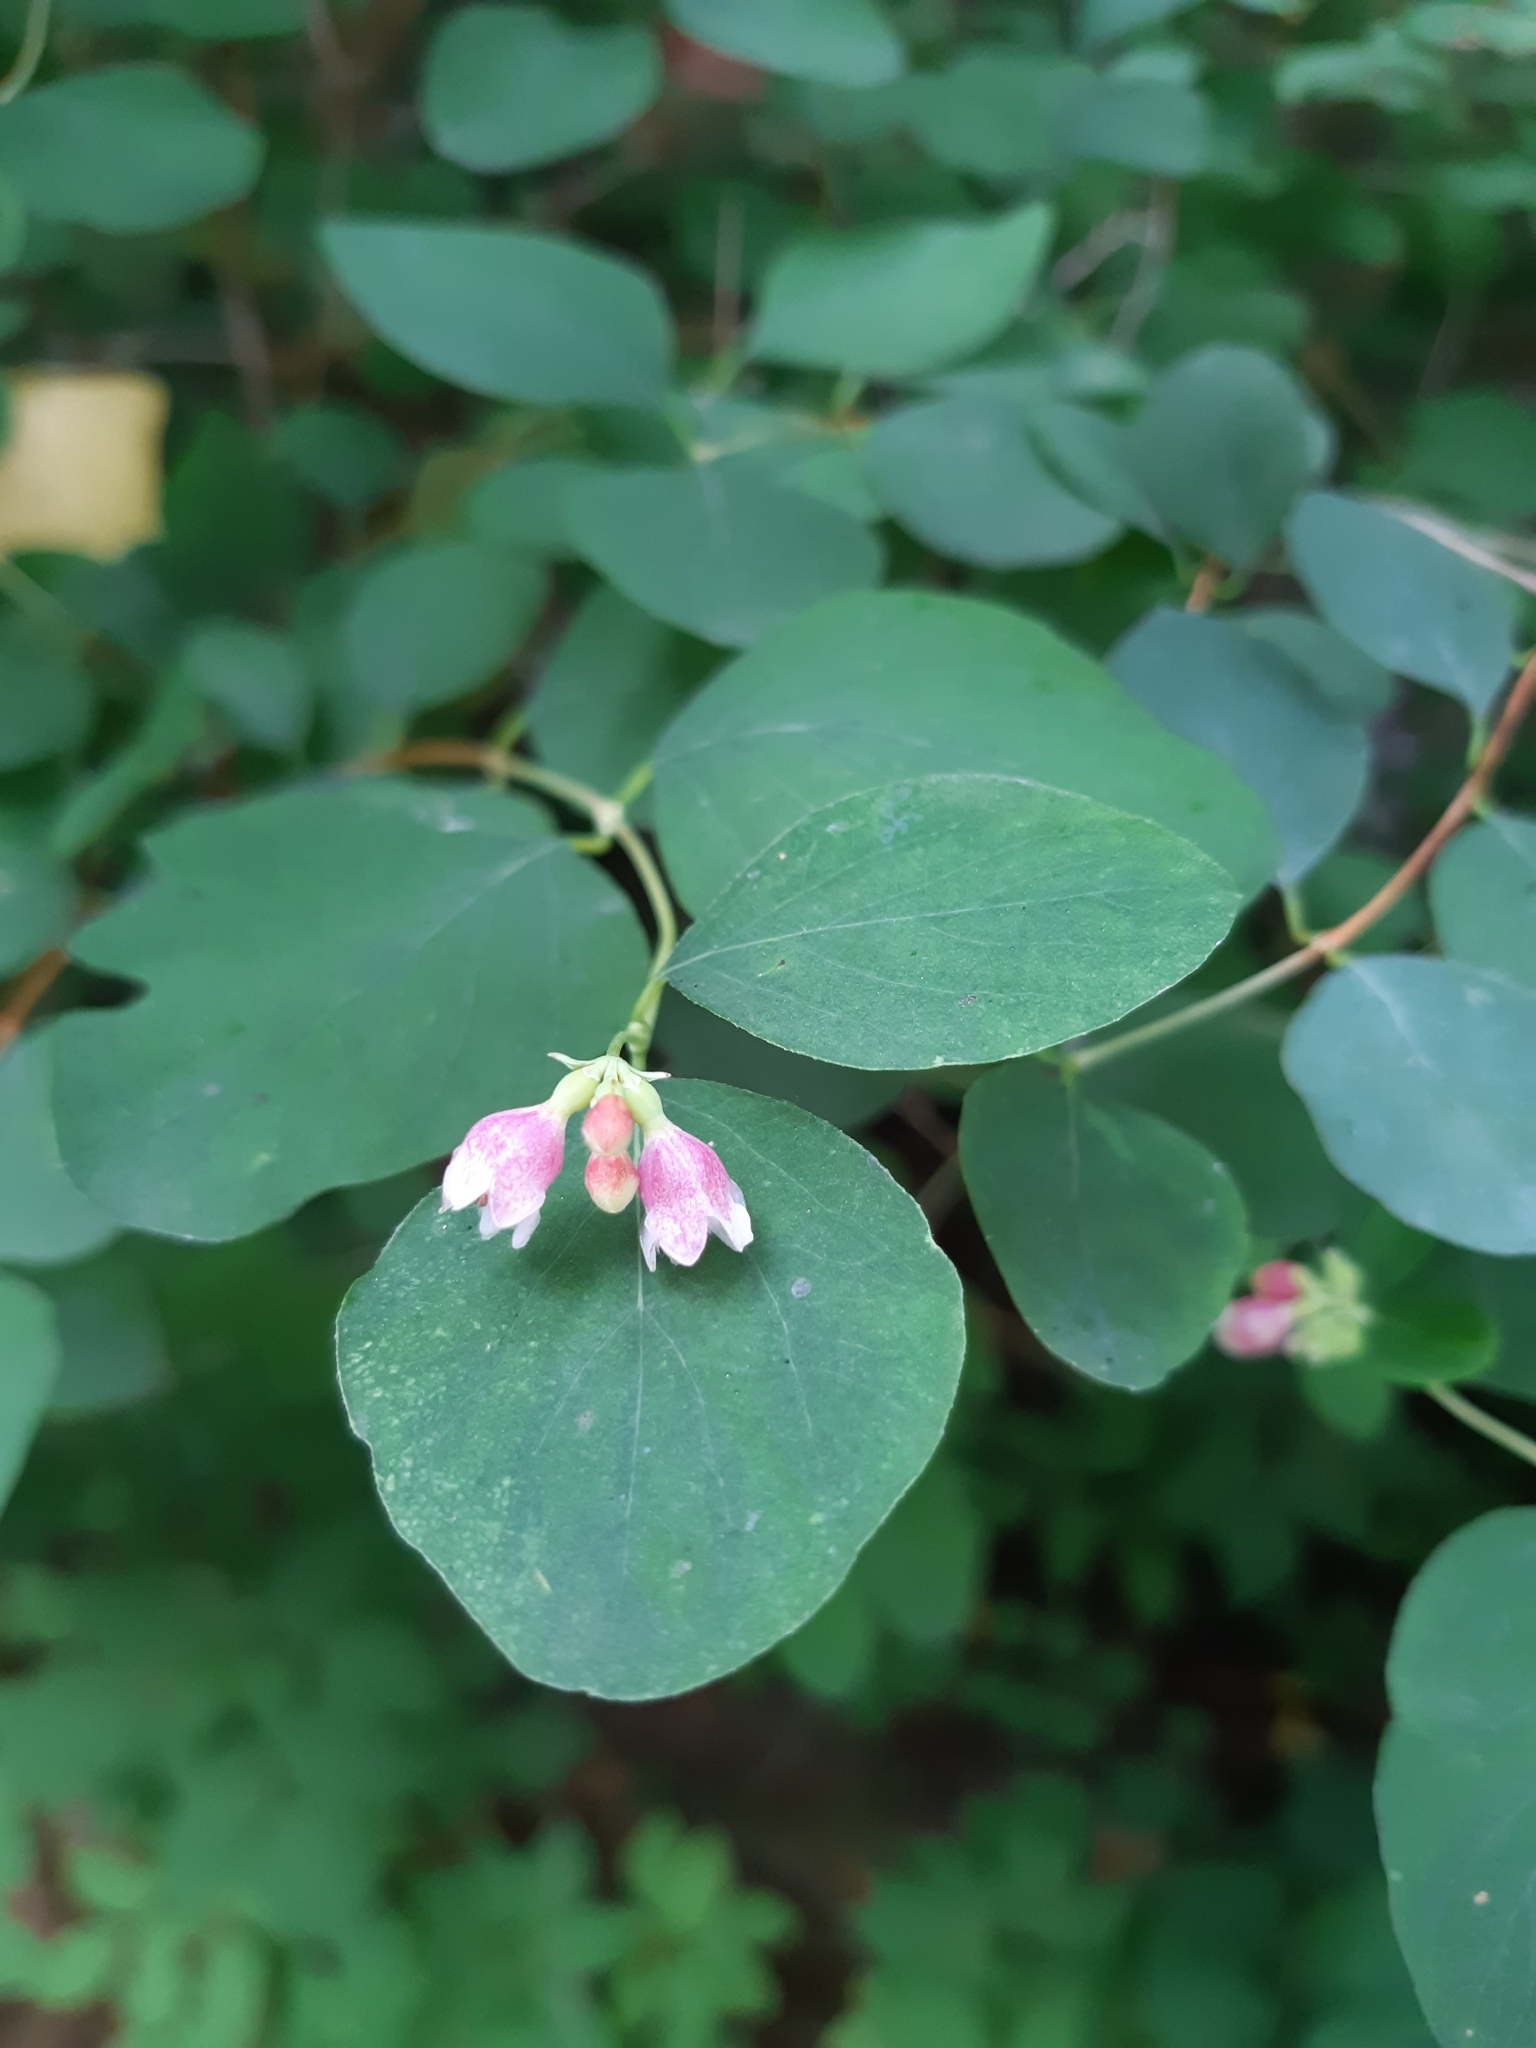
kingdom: Plantae
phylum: Tracheophyta
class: Magnoliopsida
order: Dipsacales
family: Caprifoliaceae
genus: Symphoricarpos
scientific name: Symphoricarpos albus
